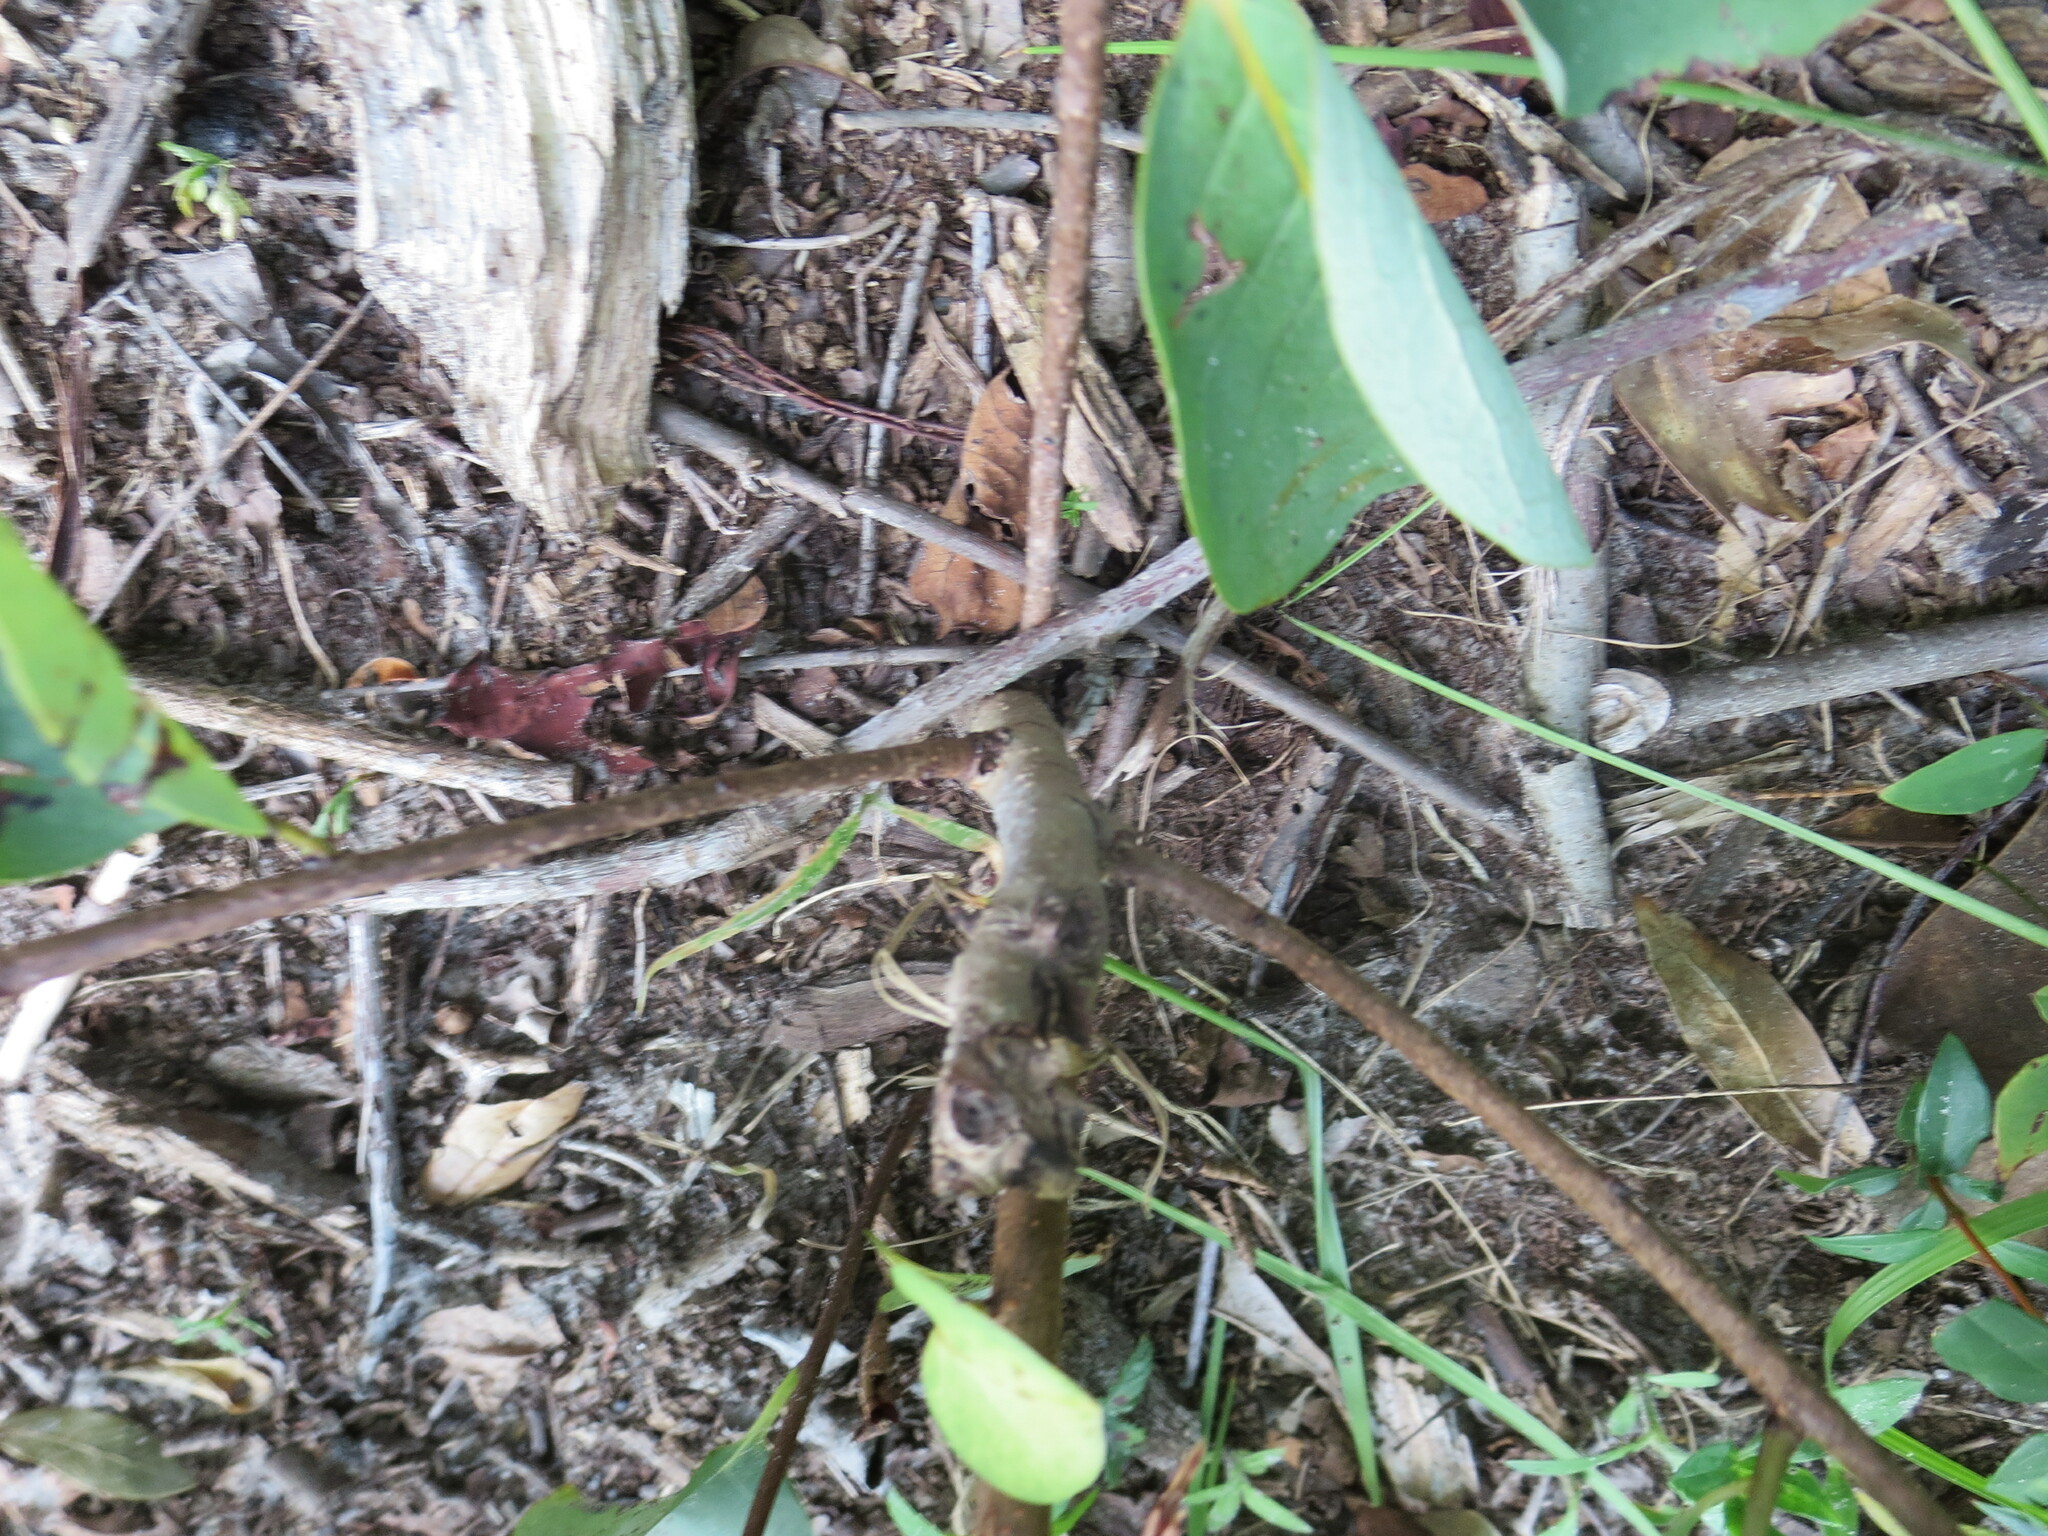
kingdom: Plantae
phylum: Tracheophyta
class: Magnoliopsida
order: Ericales
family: Ebenaceae
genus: Diospyros
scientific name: Diospyros virginiana
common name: Persimmon
